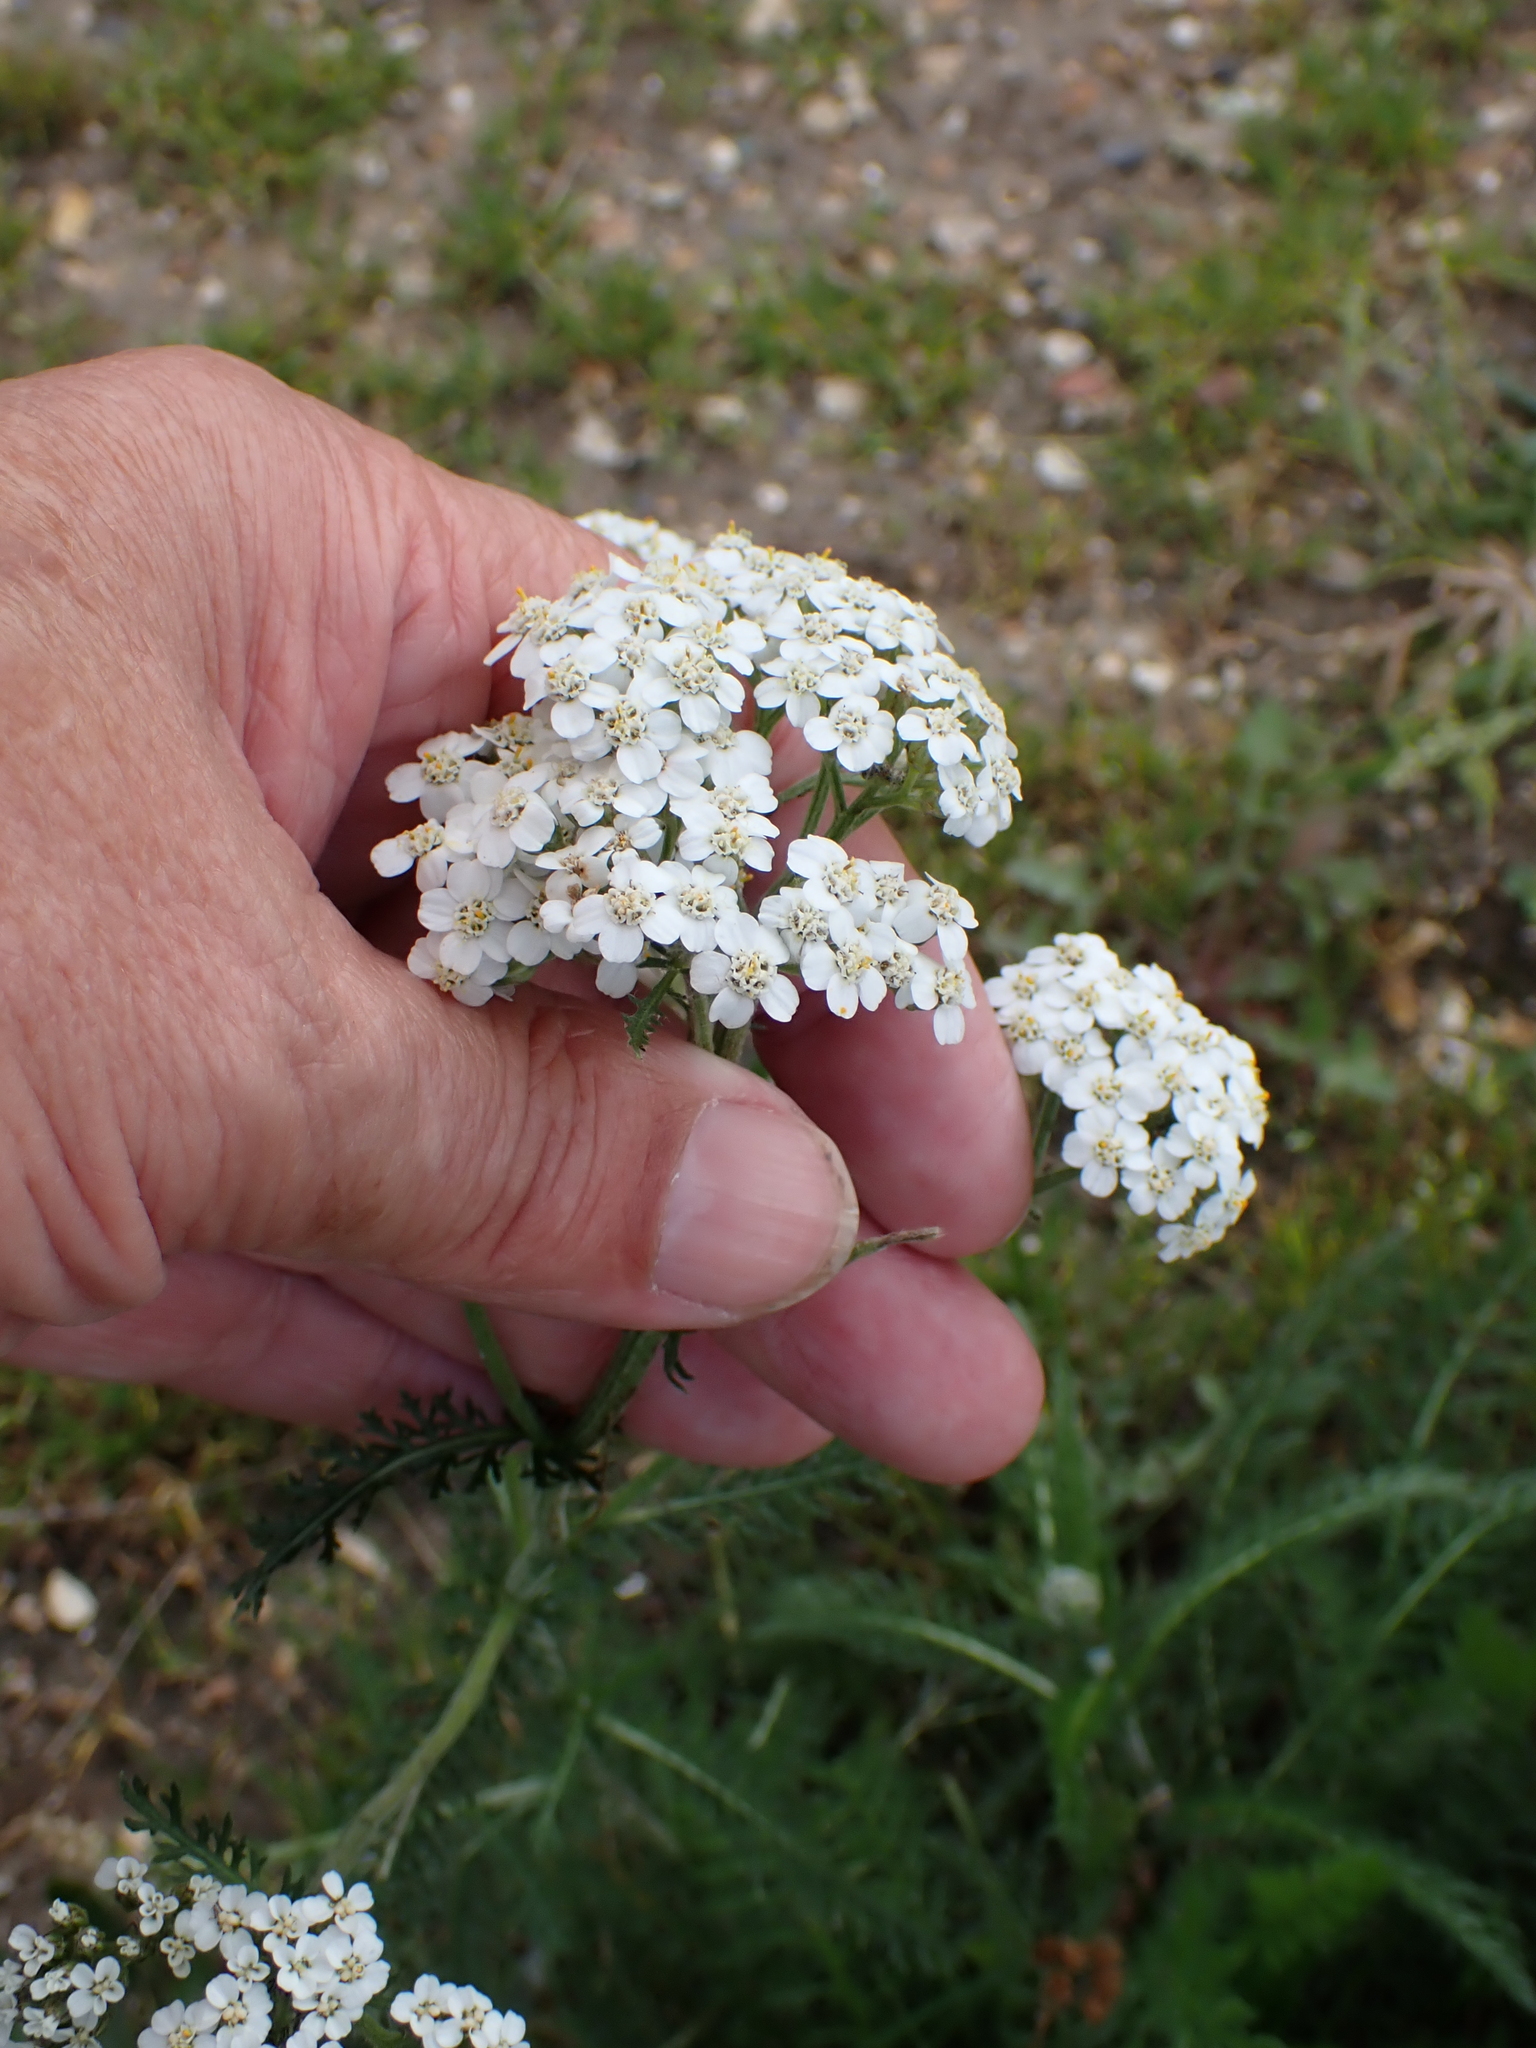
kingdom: Plantae
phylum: Tracheophyta
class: Magnoliopsida
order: Asterales
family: Asteraceae
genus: Achillea
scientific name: Achillea millefolium
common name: Yarrow
